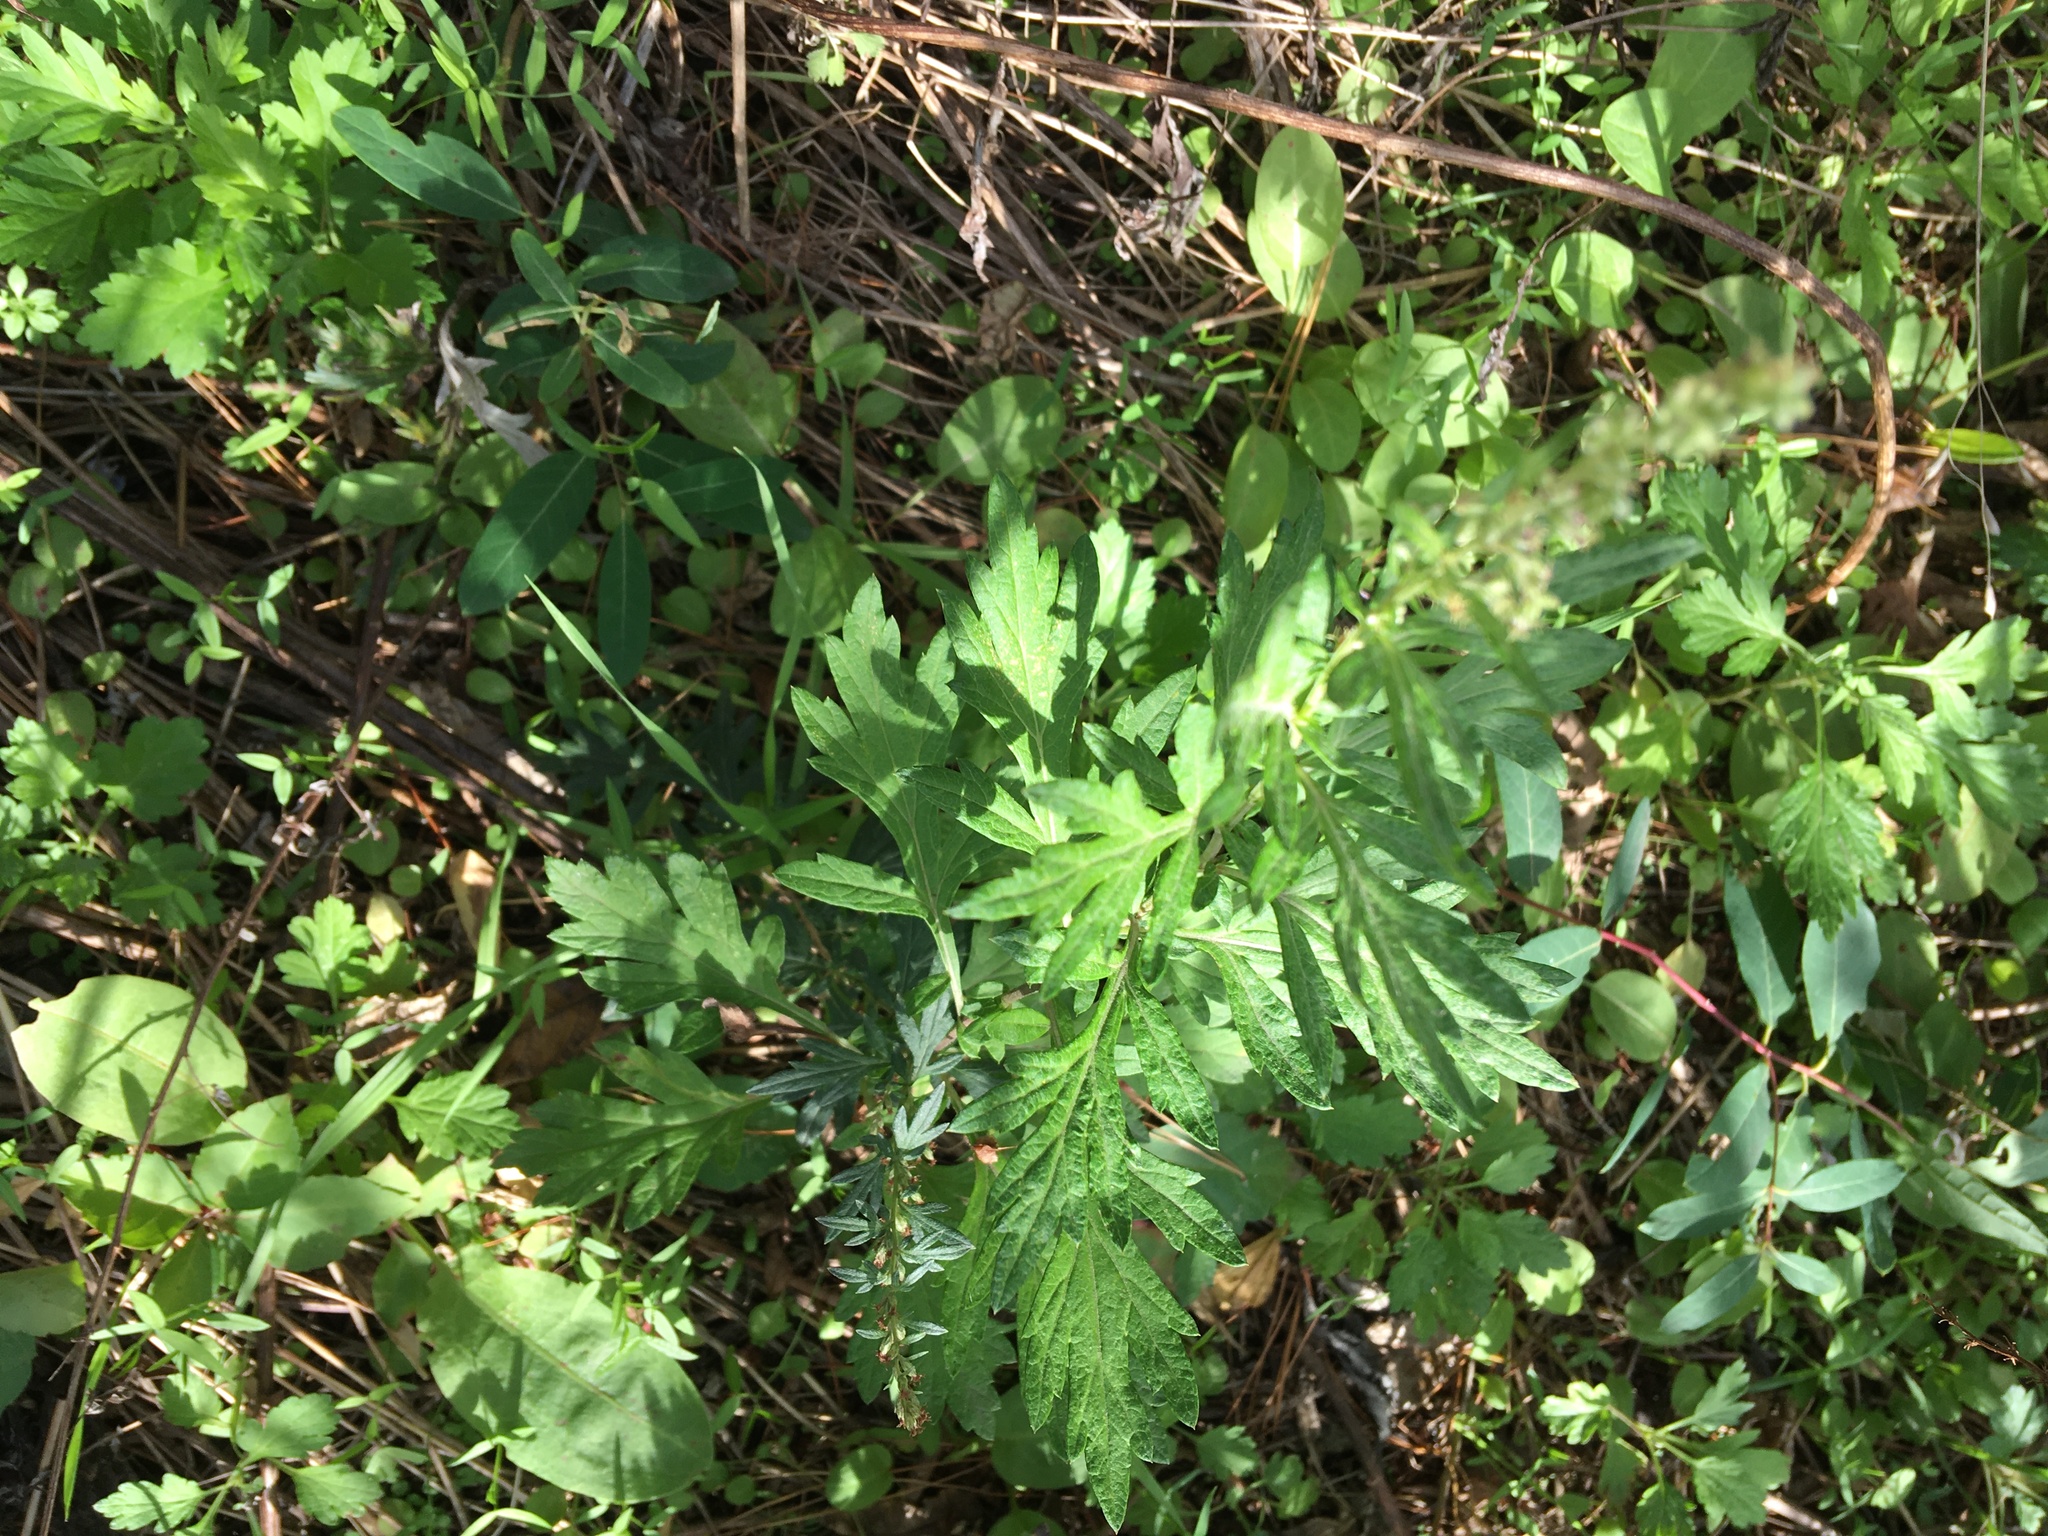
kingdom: Plantae
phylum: Tracheophyta
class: Magnoliopsida
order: Asterales
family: Asteraceae
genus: Artemisia
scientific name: Artemisia vulgaris
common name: Mugwort
